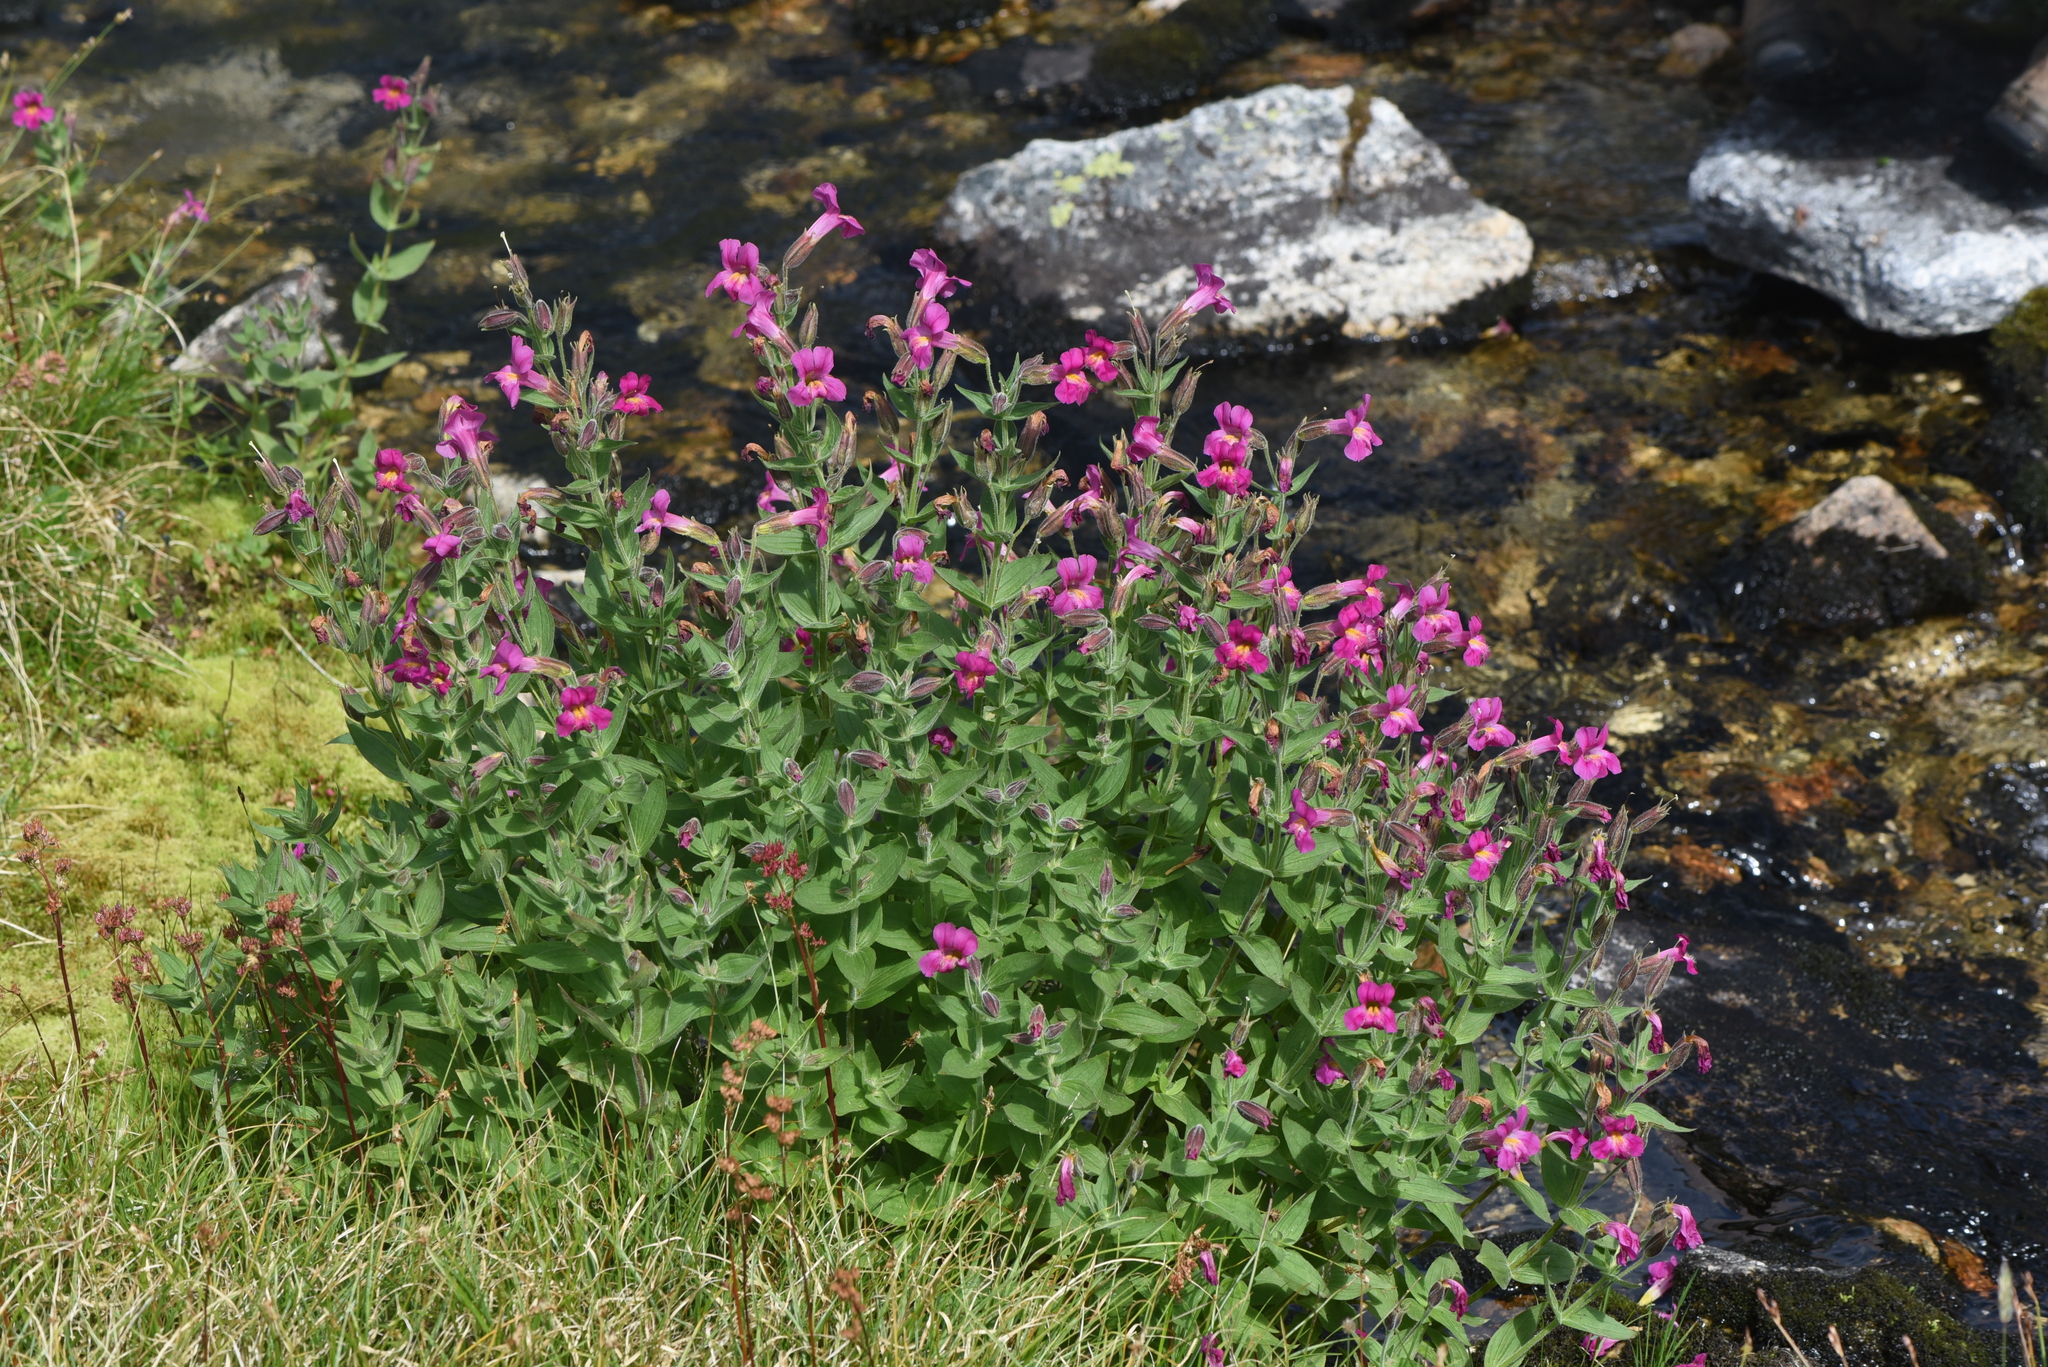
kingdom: Plantae
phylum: Tracheophyta
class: Magnoliopsida
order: Lamiales
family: Phrymaceae
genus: Erythranthe
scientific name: Erythranthe lewisii
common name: Lewis's monkey-flower
